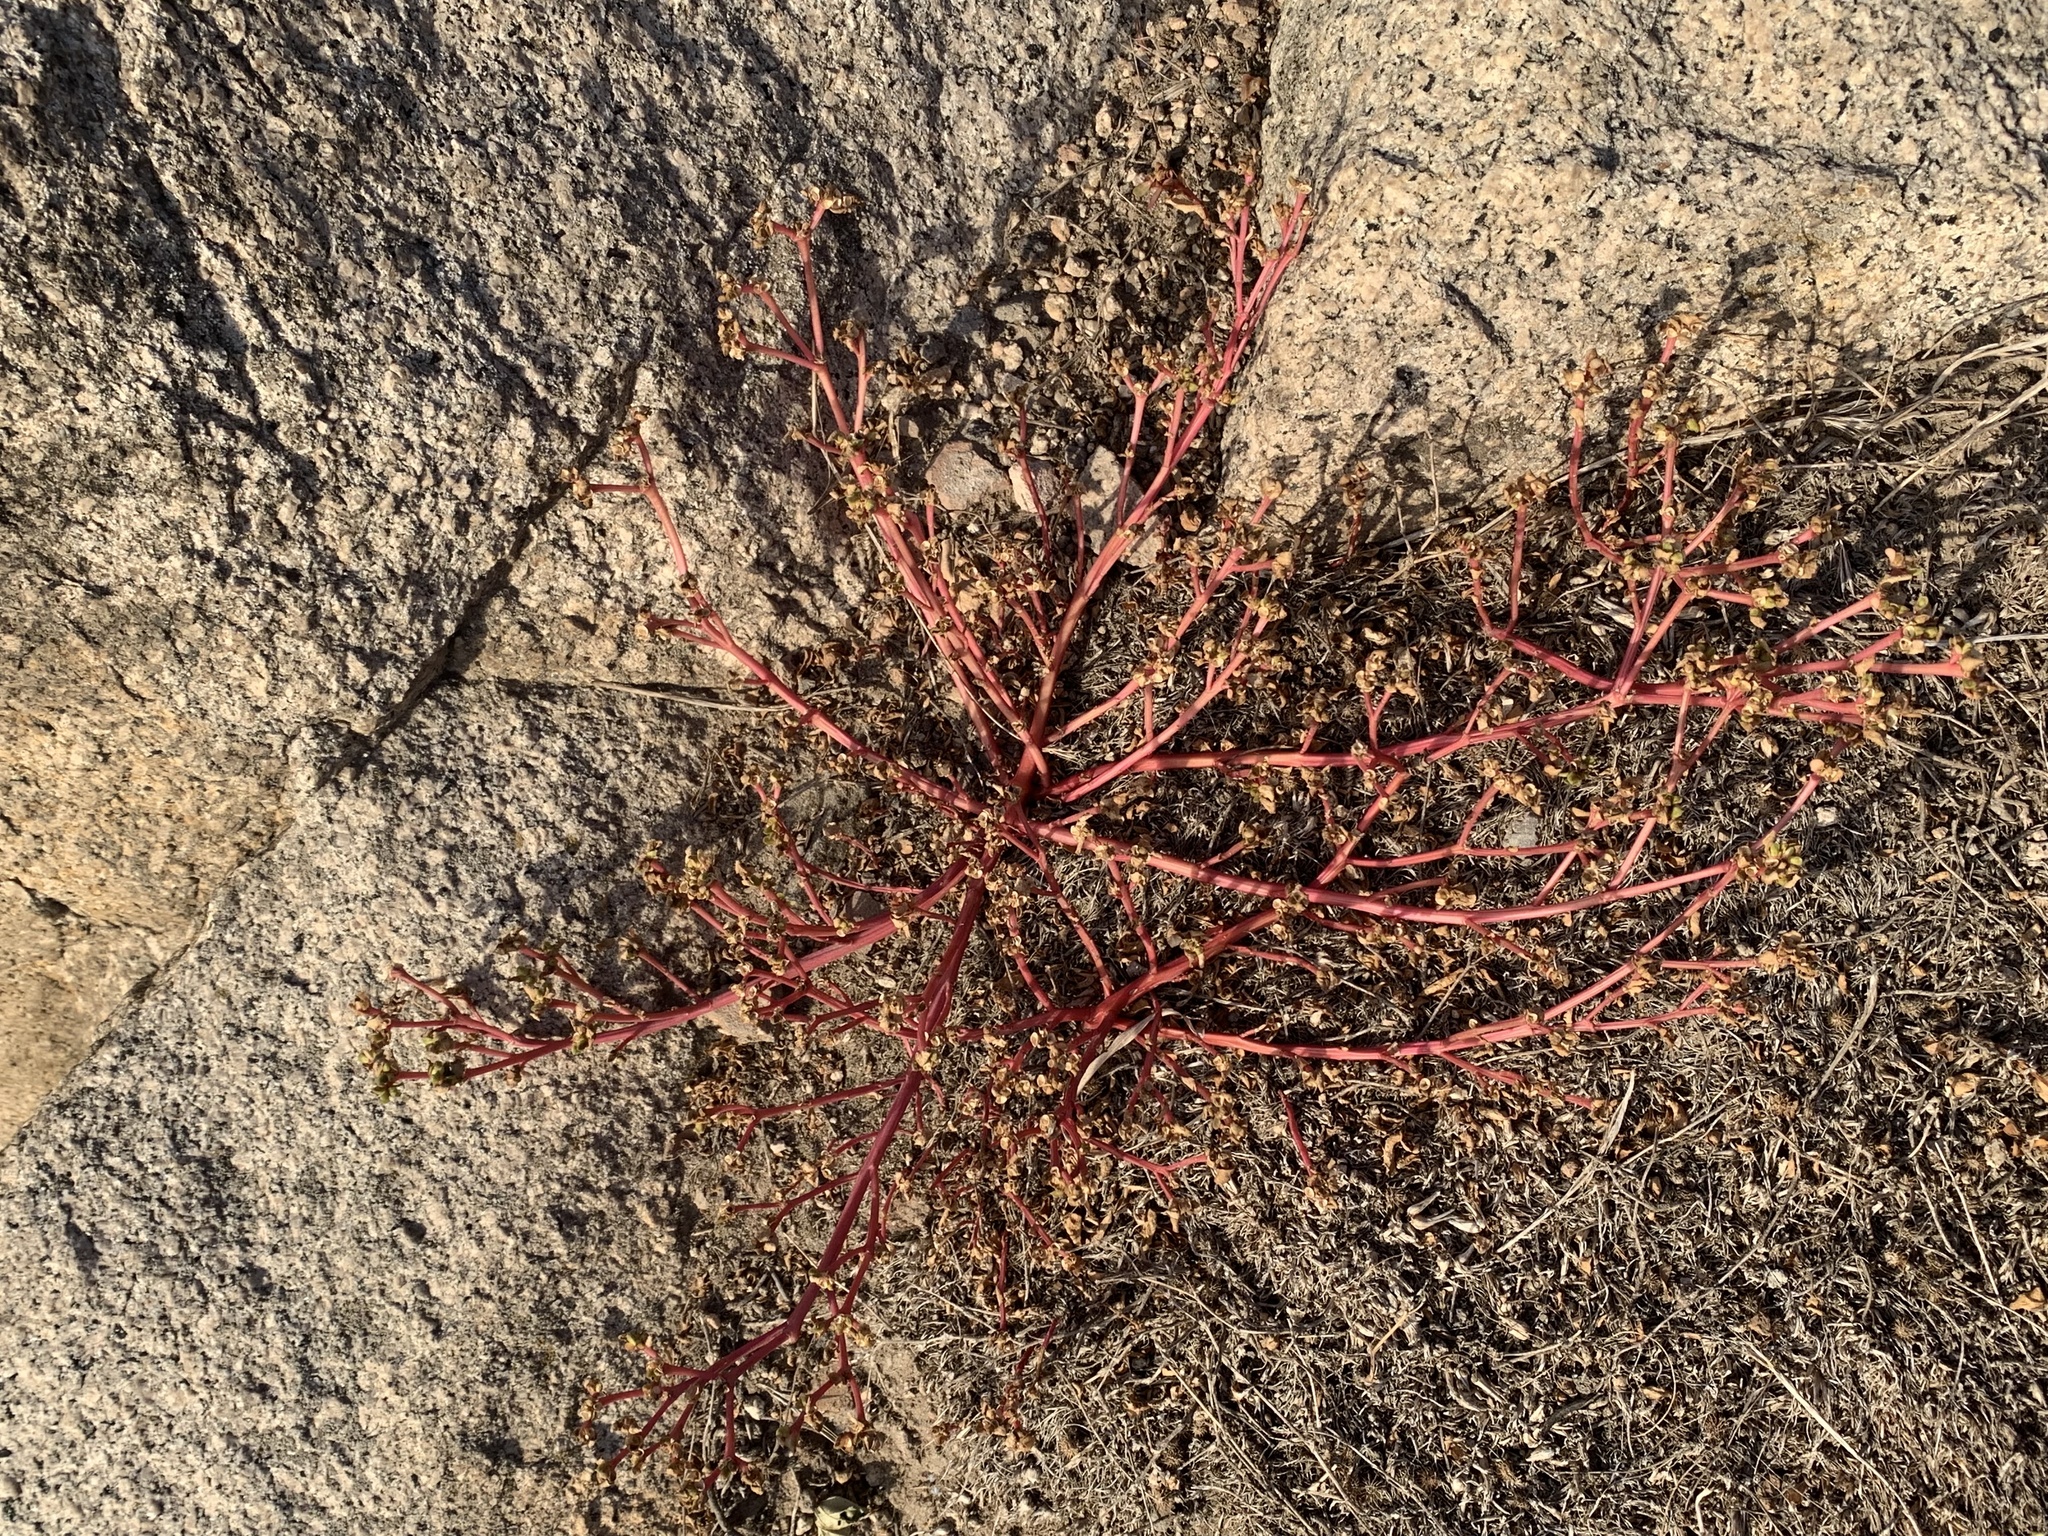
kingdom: Plantae
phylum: Tracheophyta
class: Magnoliopsida
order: Caryophyllales
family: Portulacaceae
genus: Portulaca
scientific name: Portulaca oleracea
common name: Common purslane
